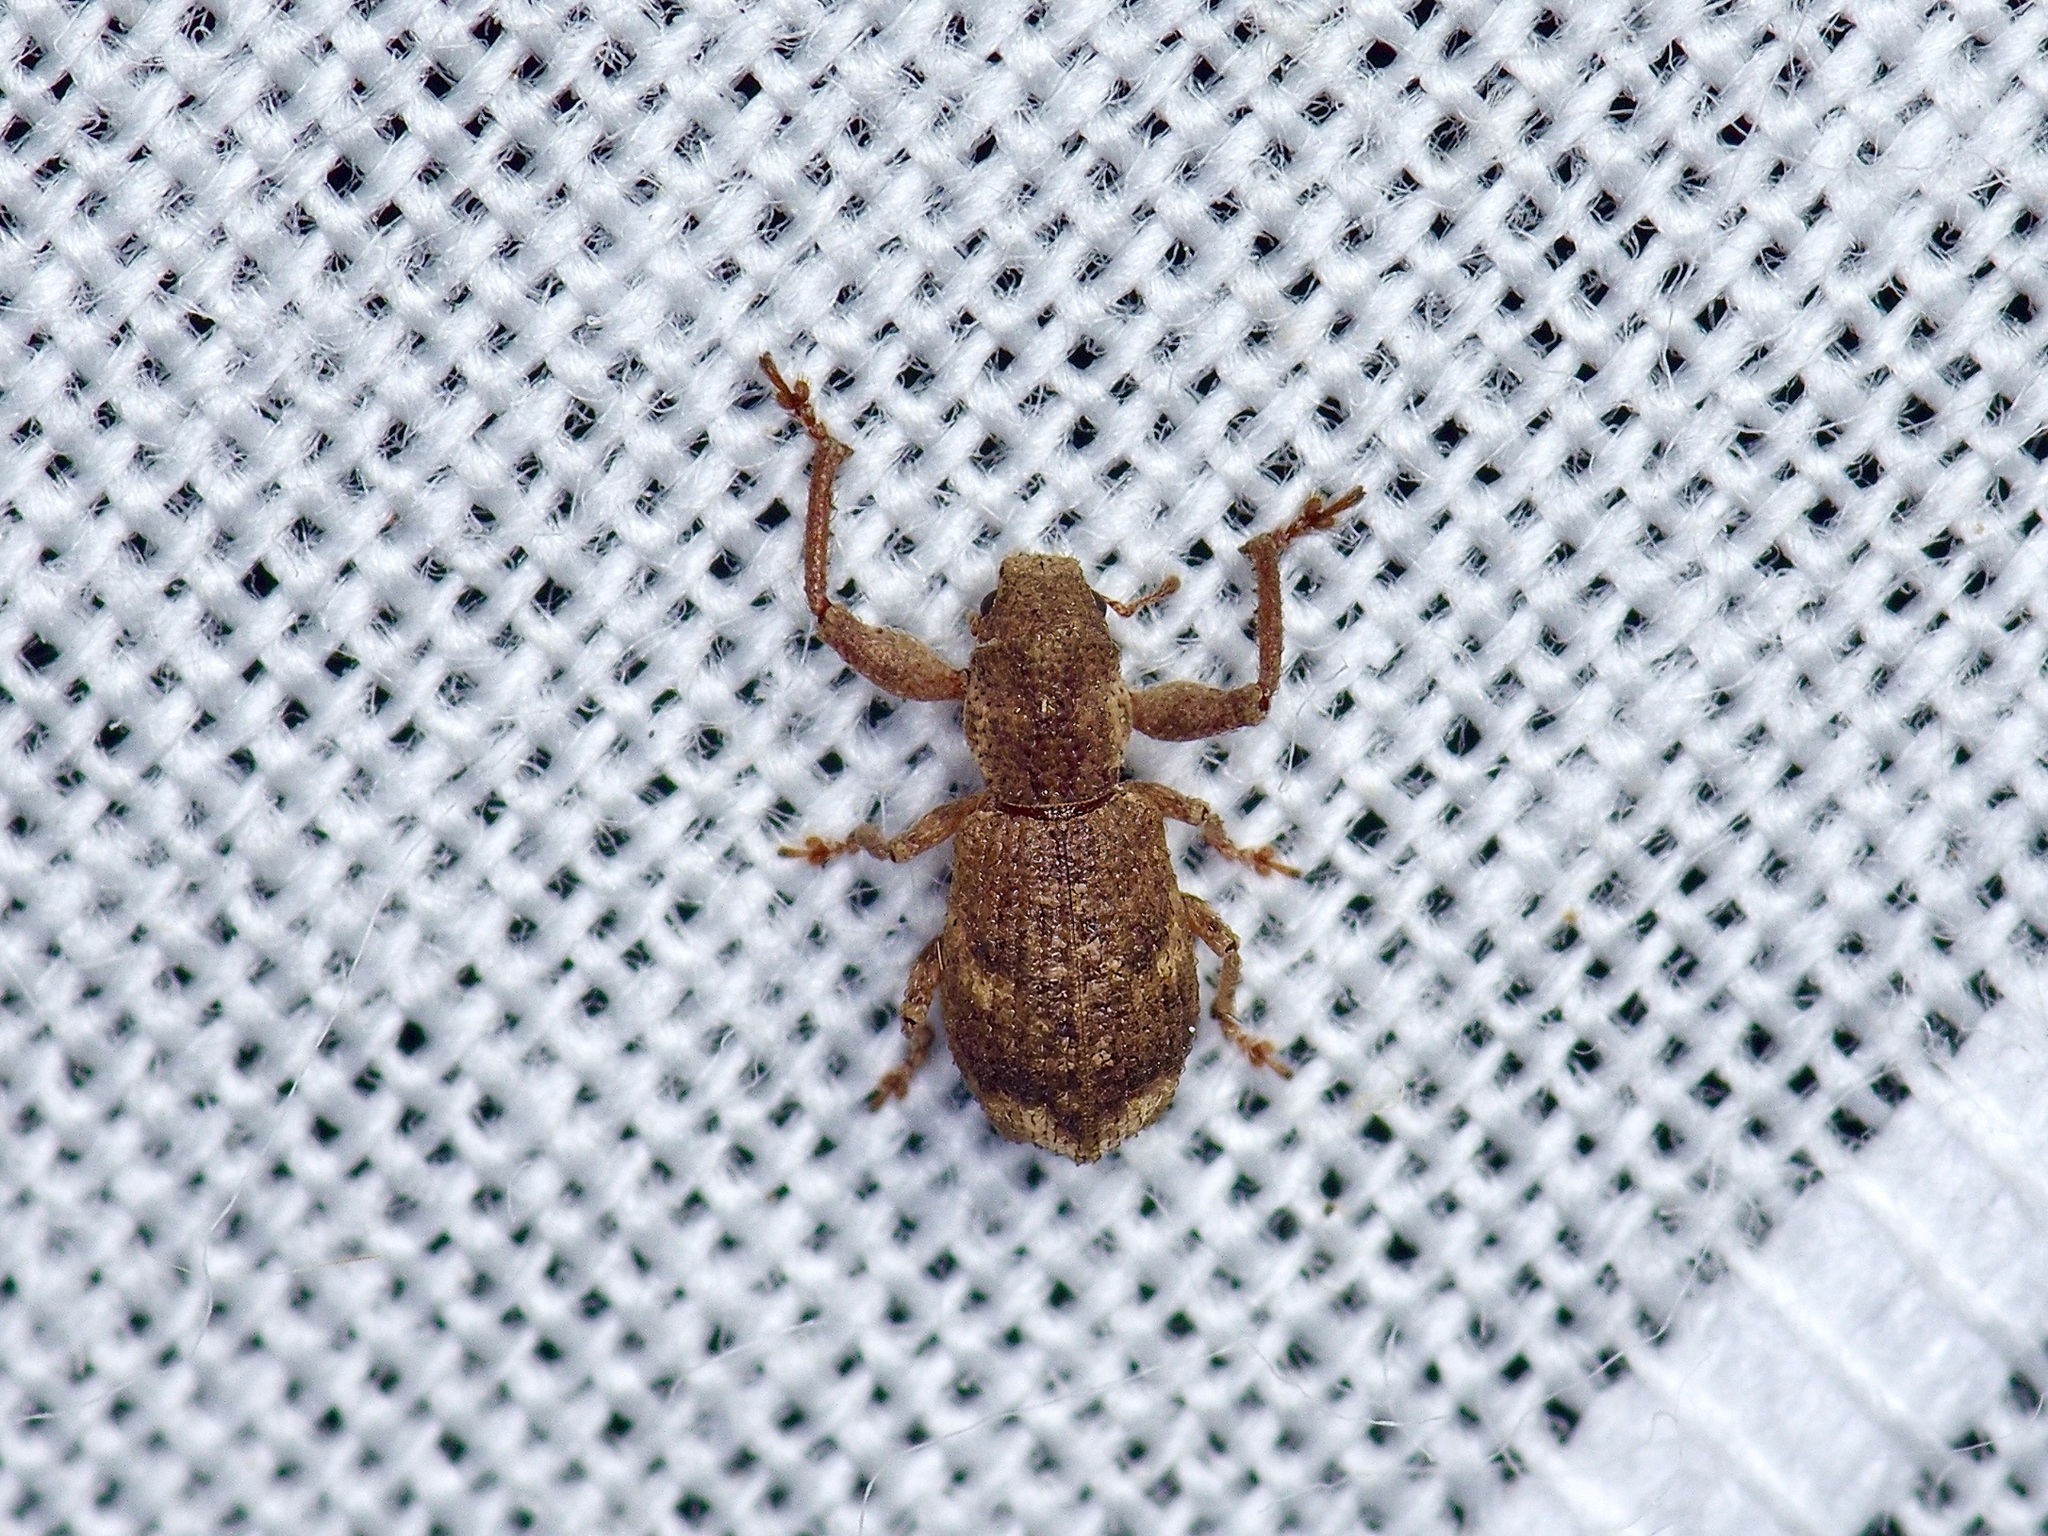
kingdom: Animalia
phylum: Arthropoda
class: Insecta
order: Coleoptera
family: Curculionidae
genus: Pandeleteius
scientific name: Pandeleteius cinereus
